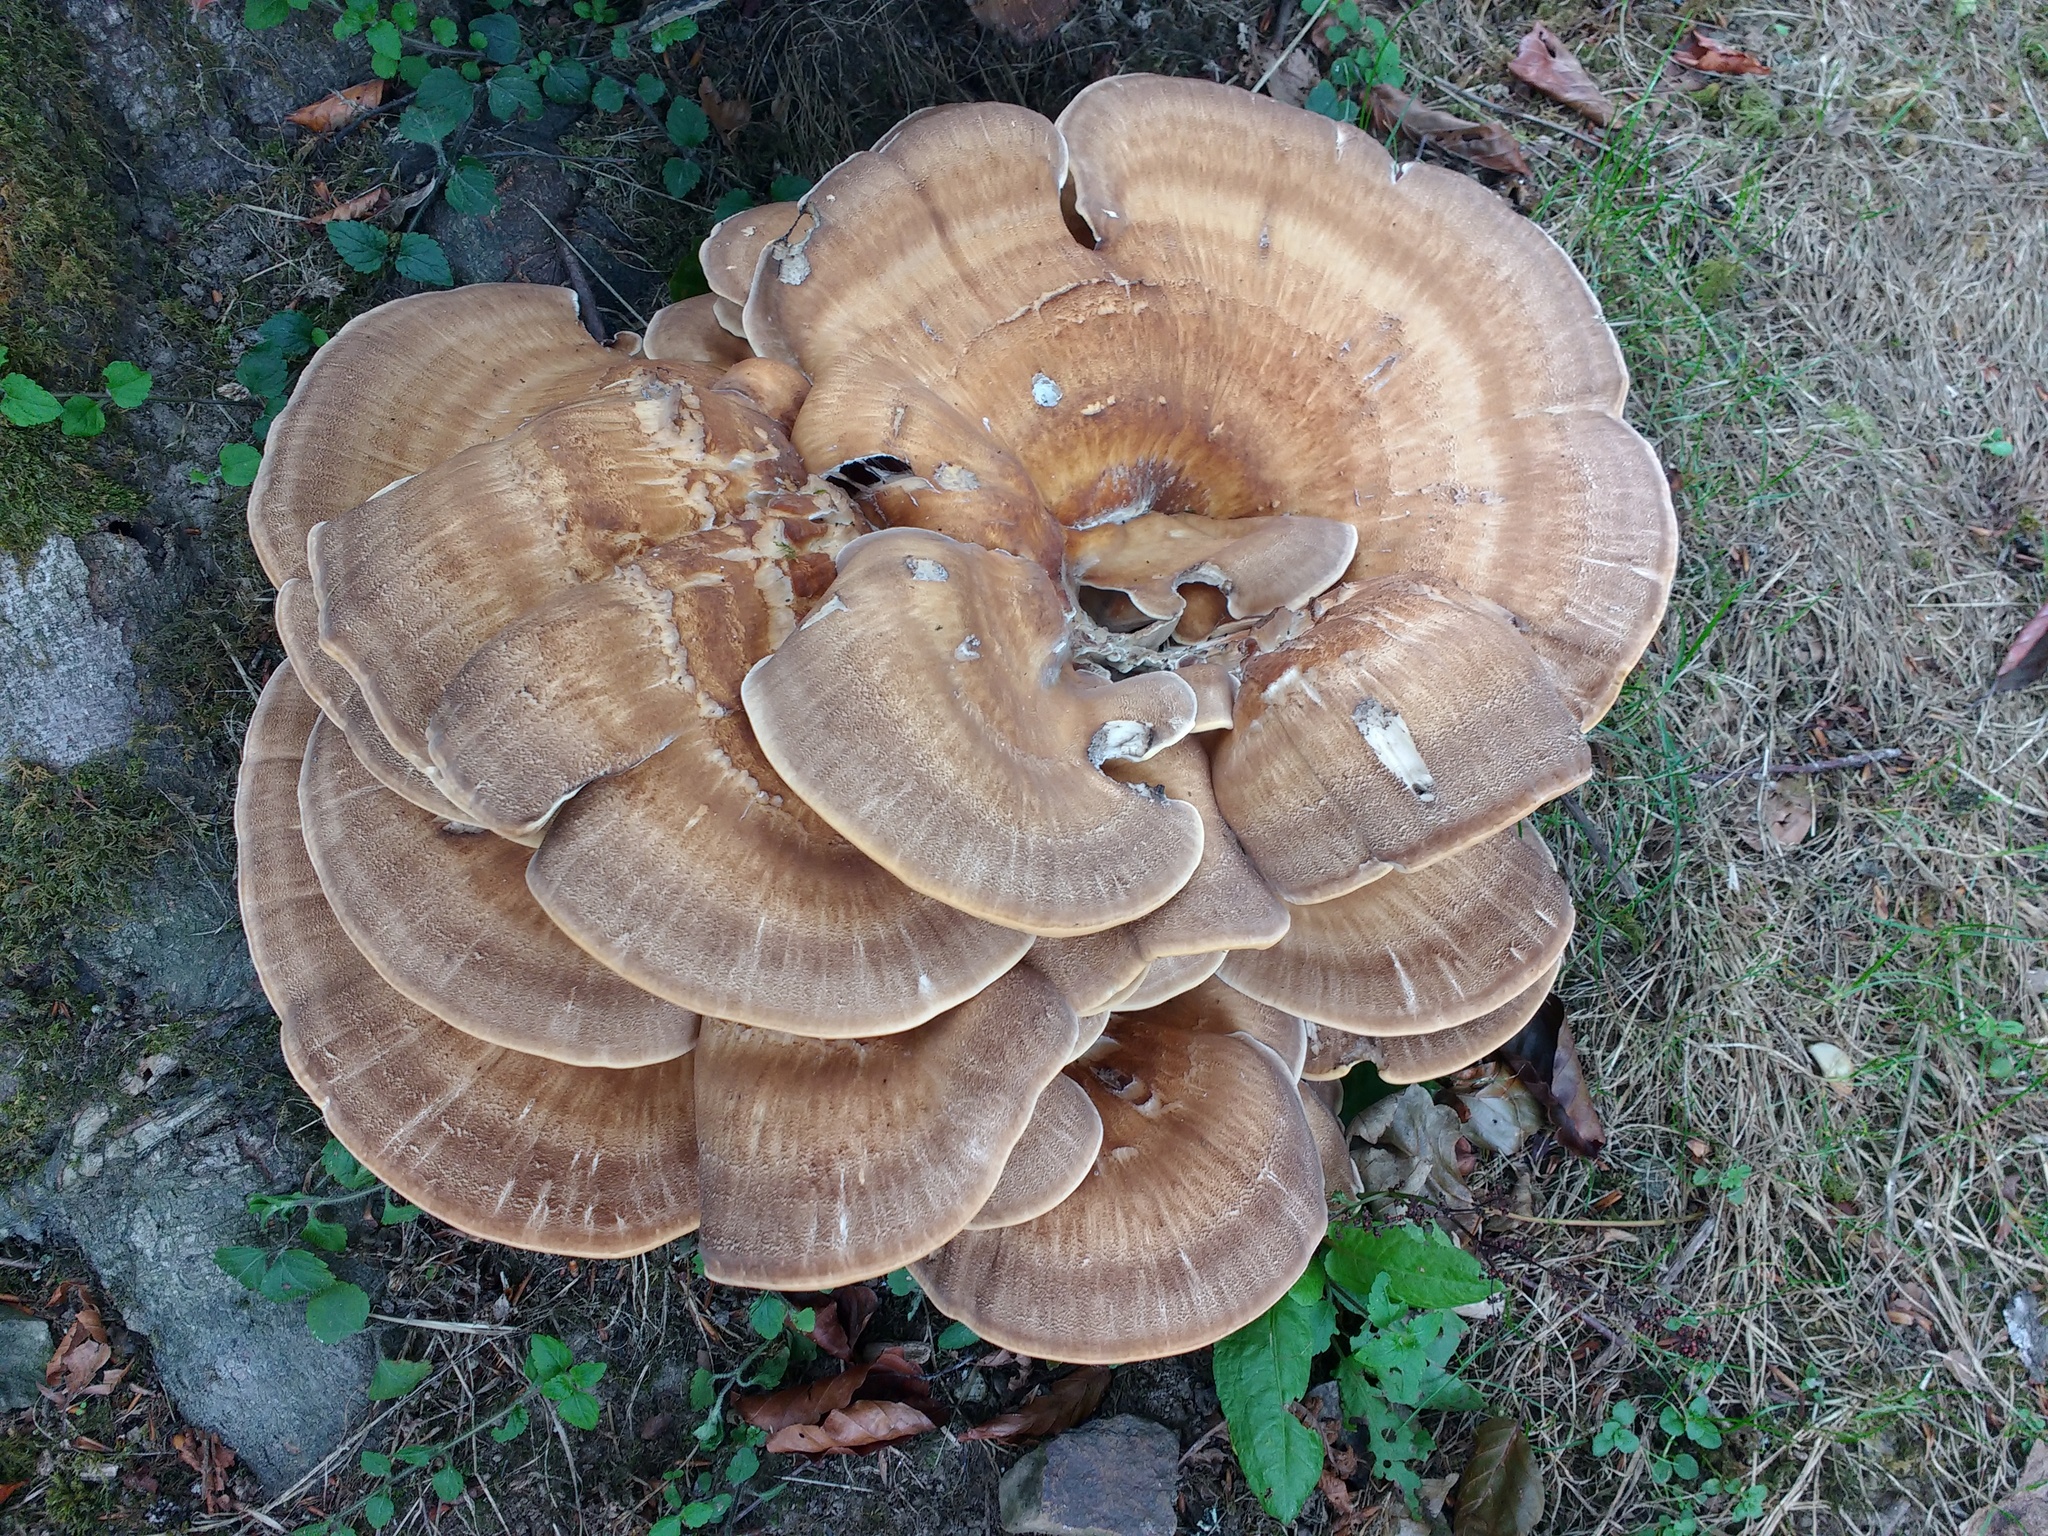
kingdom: Fungi
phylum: Basidiomycota
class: Agaricomycetes
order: Polyporales
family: Meripilaceae
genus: Meripilus
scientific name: Meripilus giganteus
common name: Giant polypore
